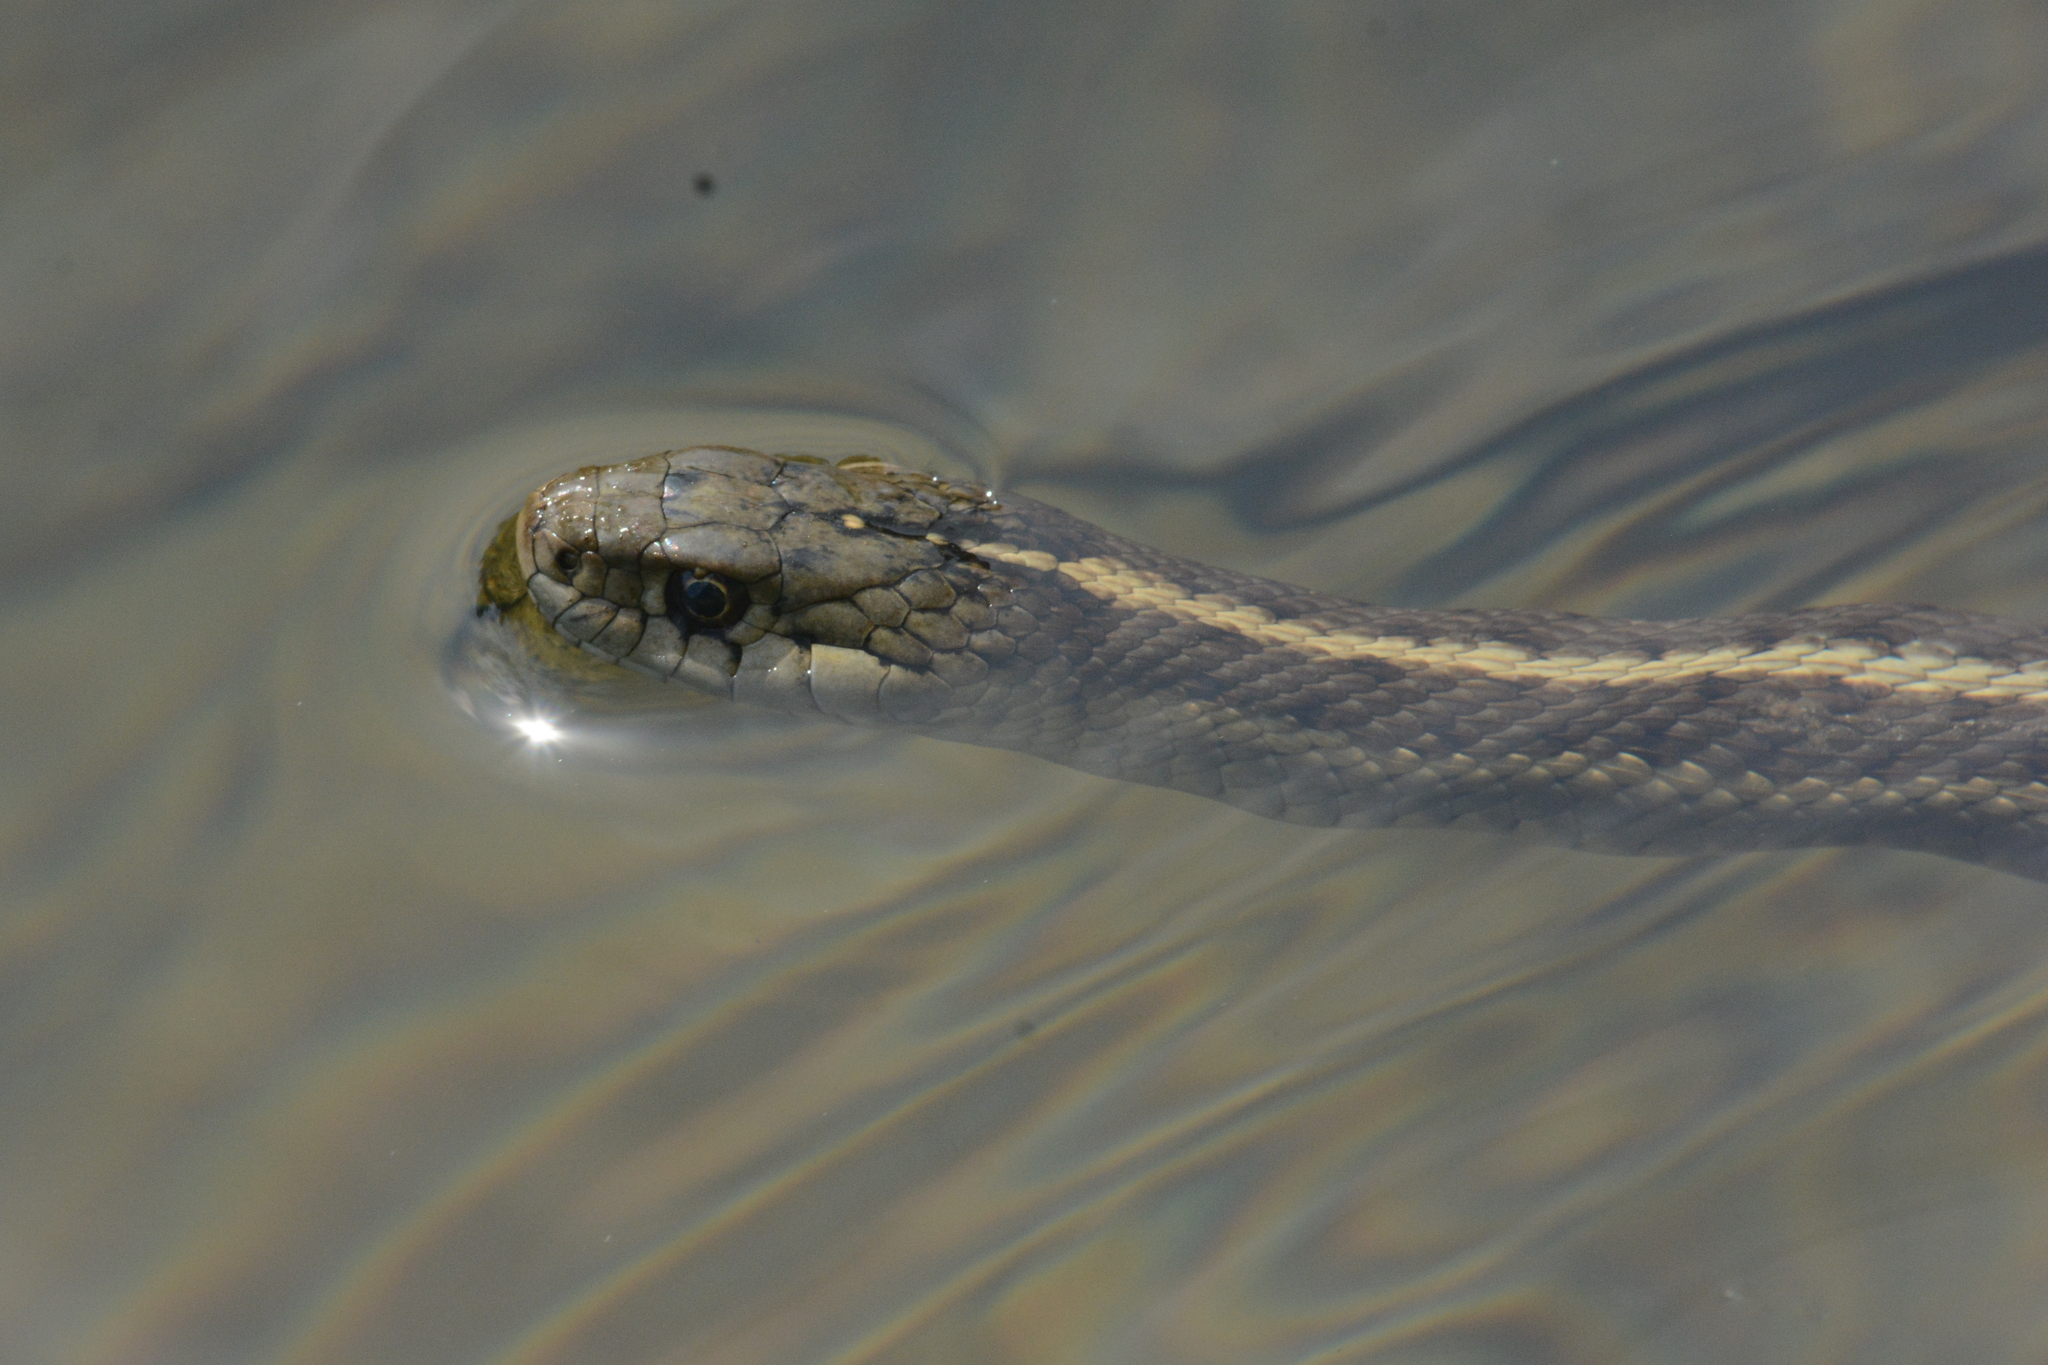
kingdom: Animalia
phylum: Chordata
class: Squamata
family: Colubridae
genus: Thamnophis
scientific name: Thamnophis elegans
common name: Western terrestrial garter snake
